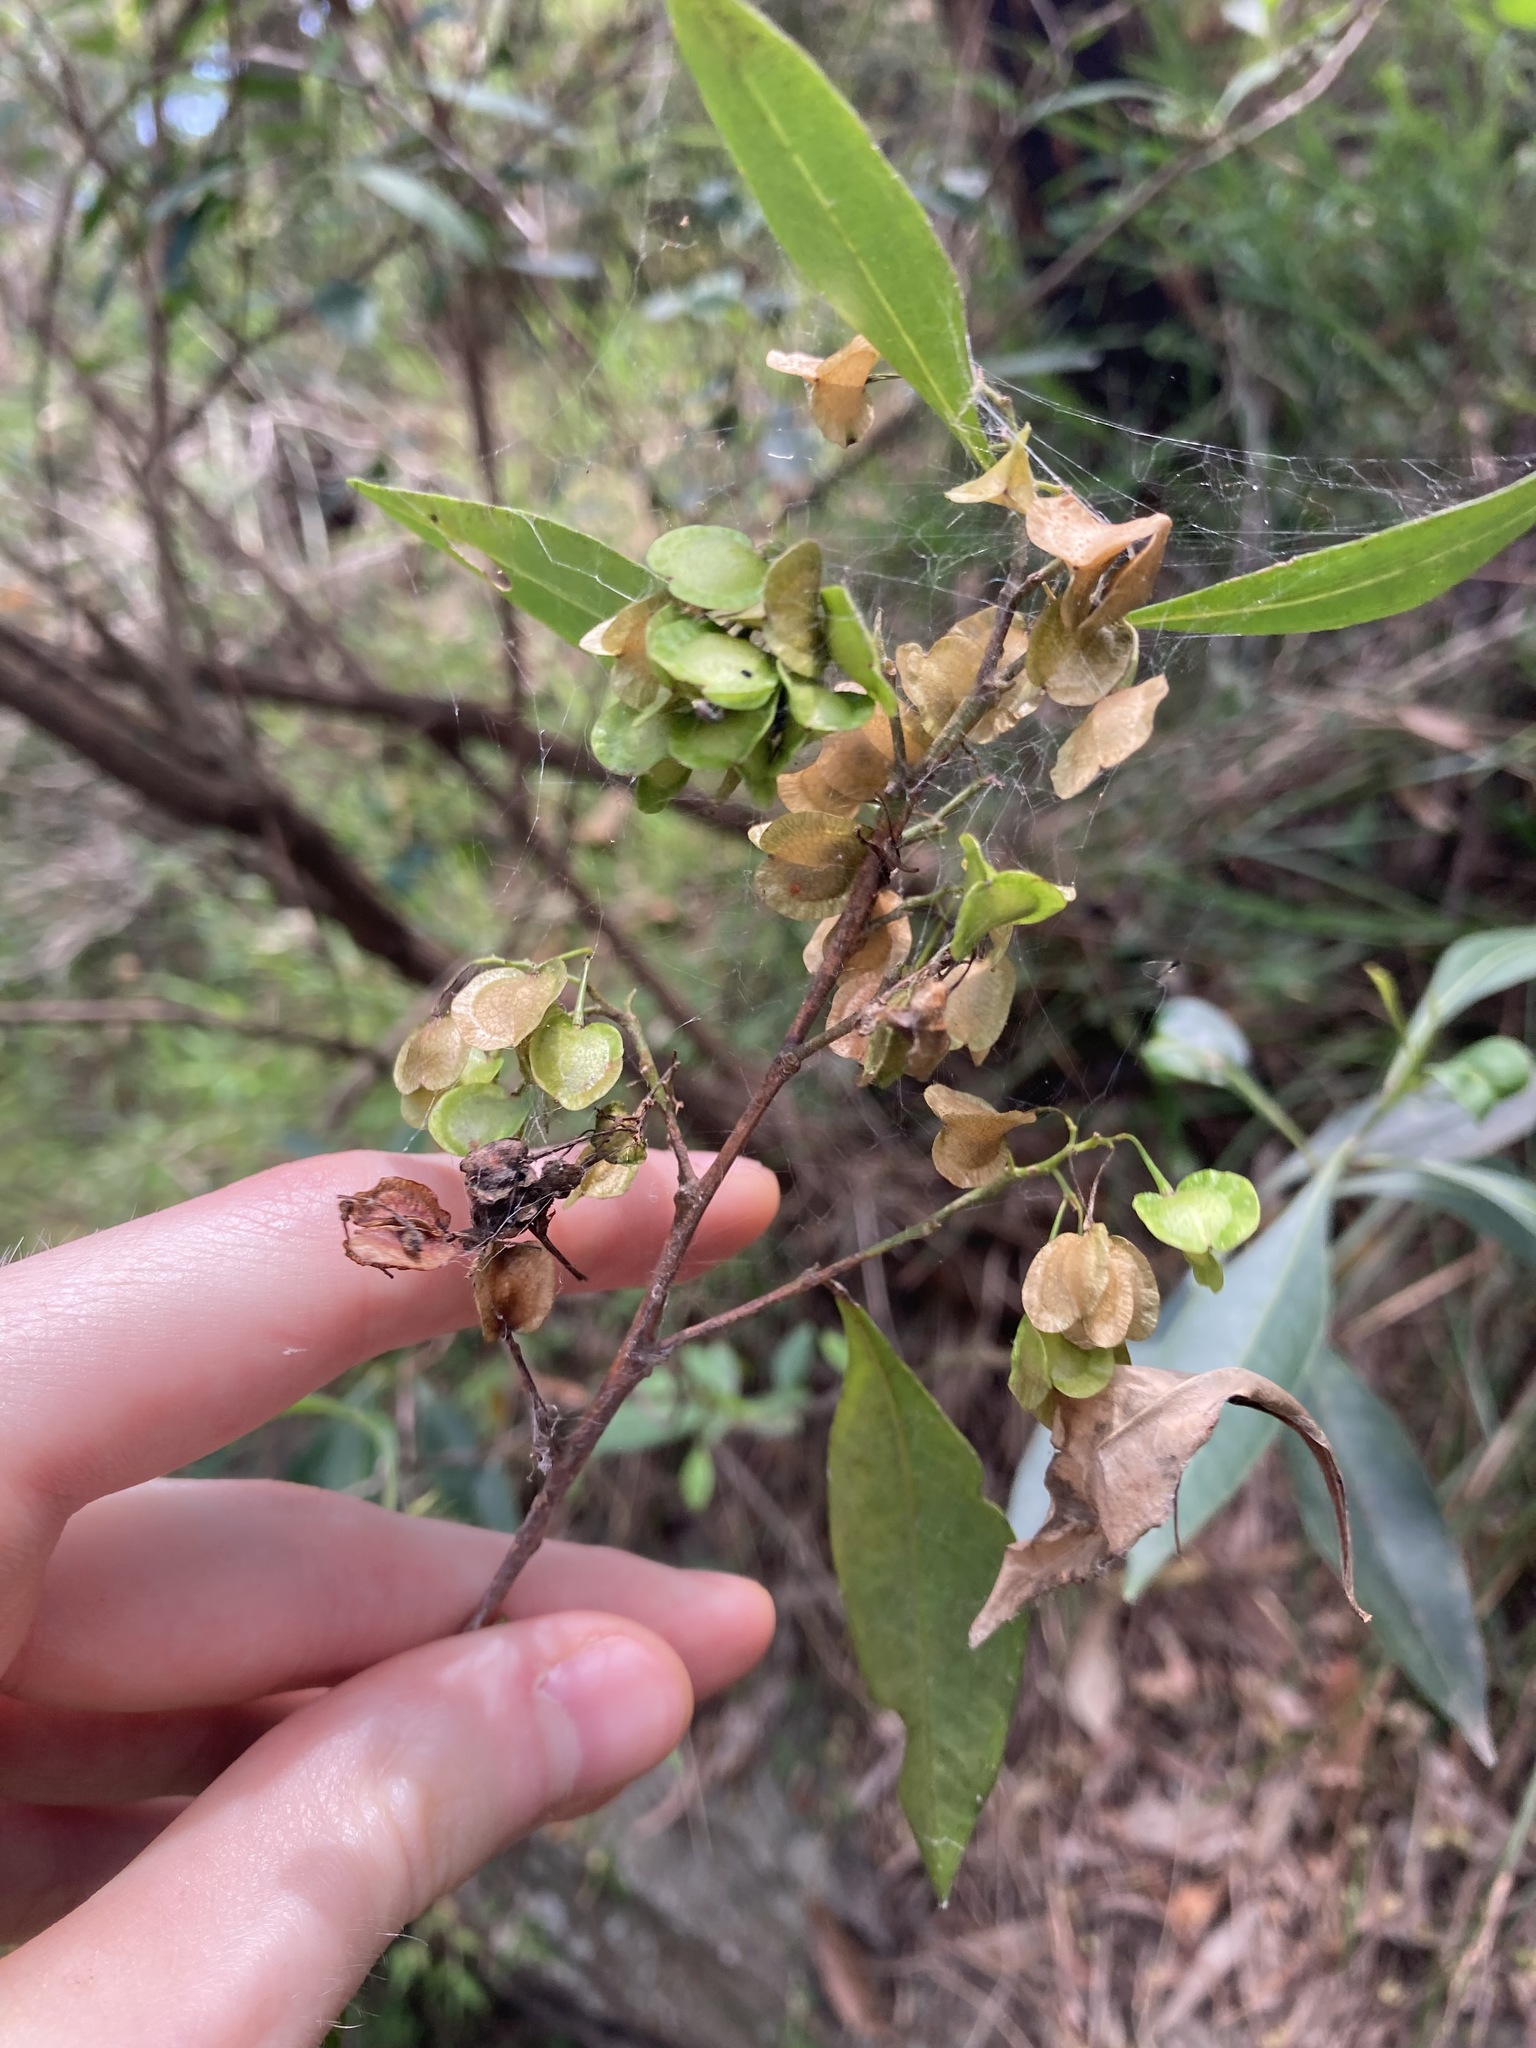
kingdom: Plantae
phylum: Tracheophyta
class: Magnoliopsida
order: Sapindales
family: Sapindaceae
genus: Dodonaea
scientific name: Dodonaea triquetra
